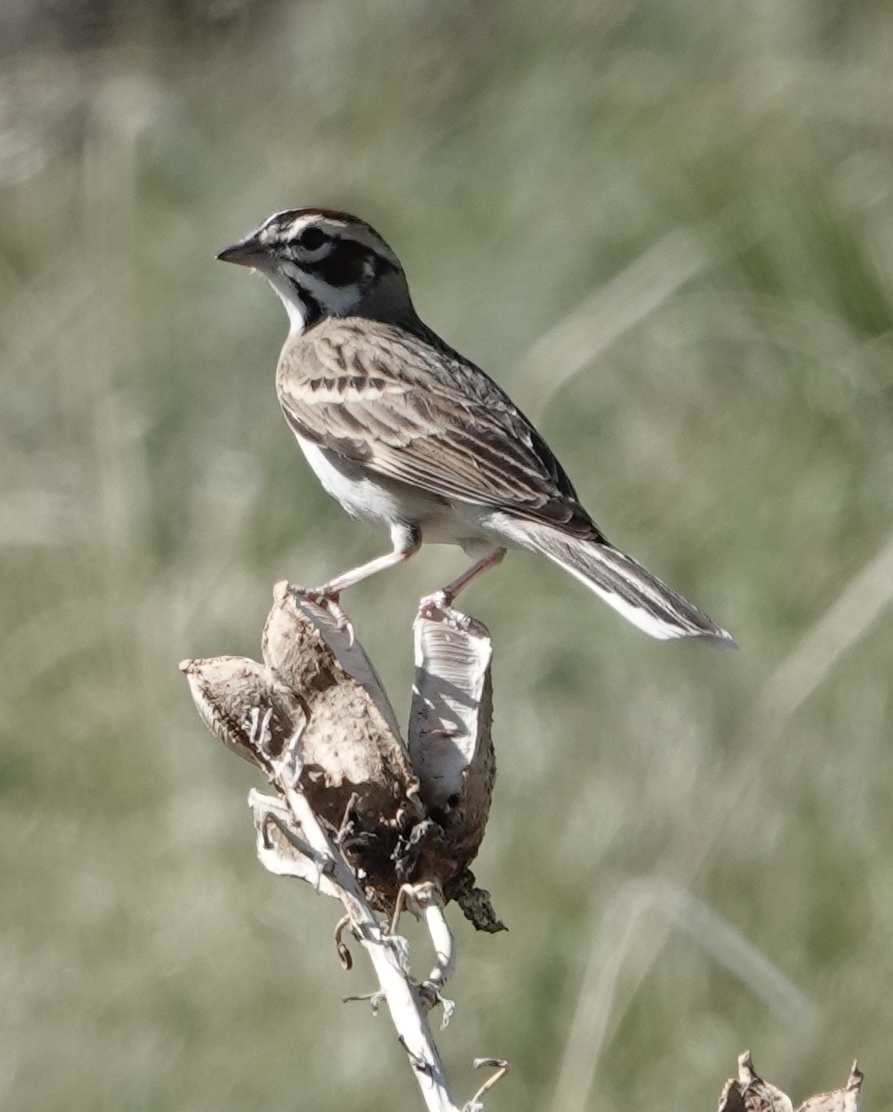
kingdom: Animalia
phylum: Chordata
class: Aves
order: Passeriformes
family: Passerellidae
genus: Chondestes
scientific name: Chondestes grammacus
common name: Lark sparrow
